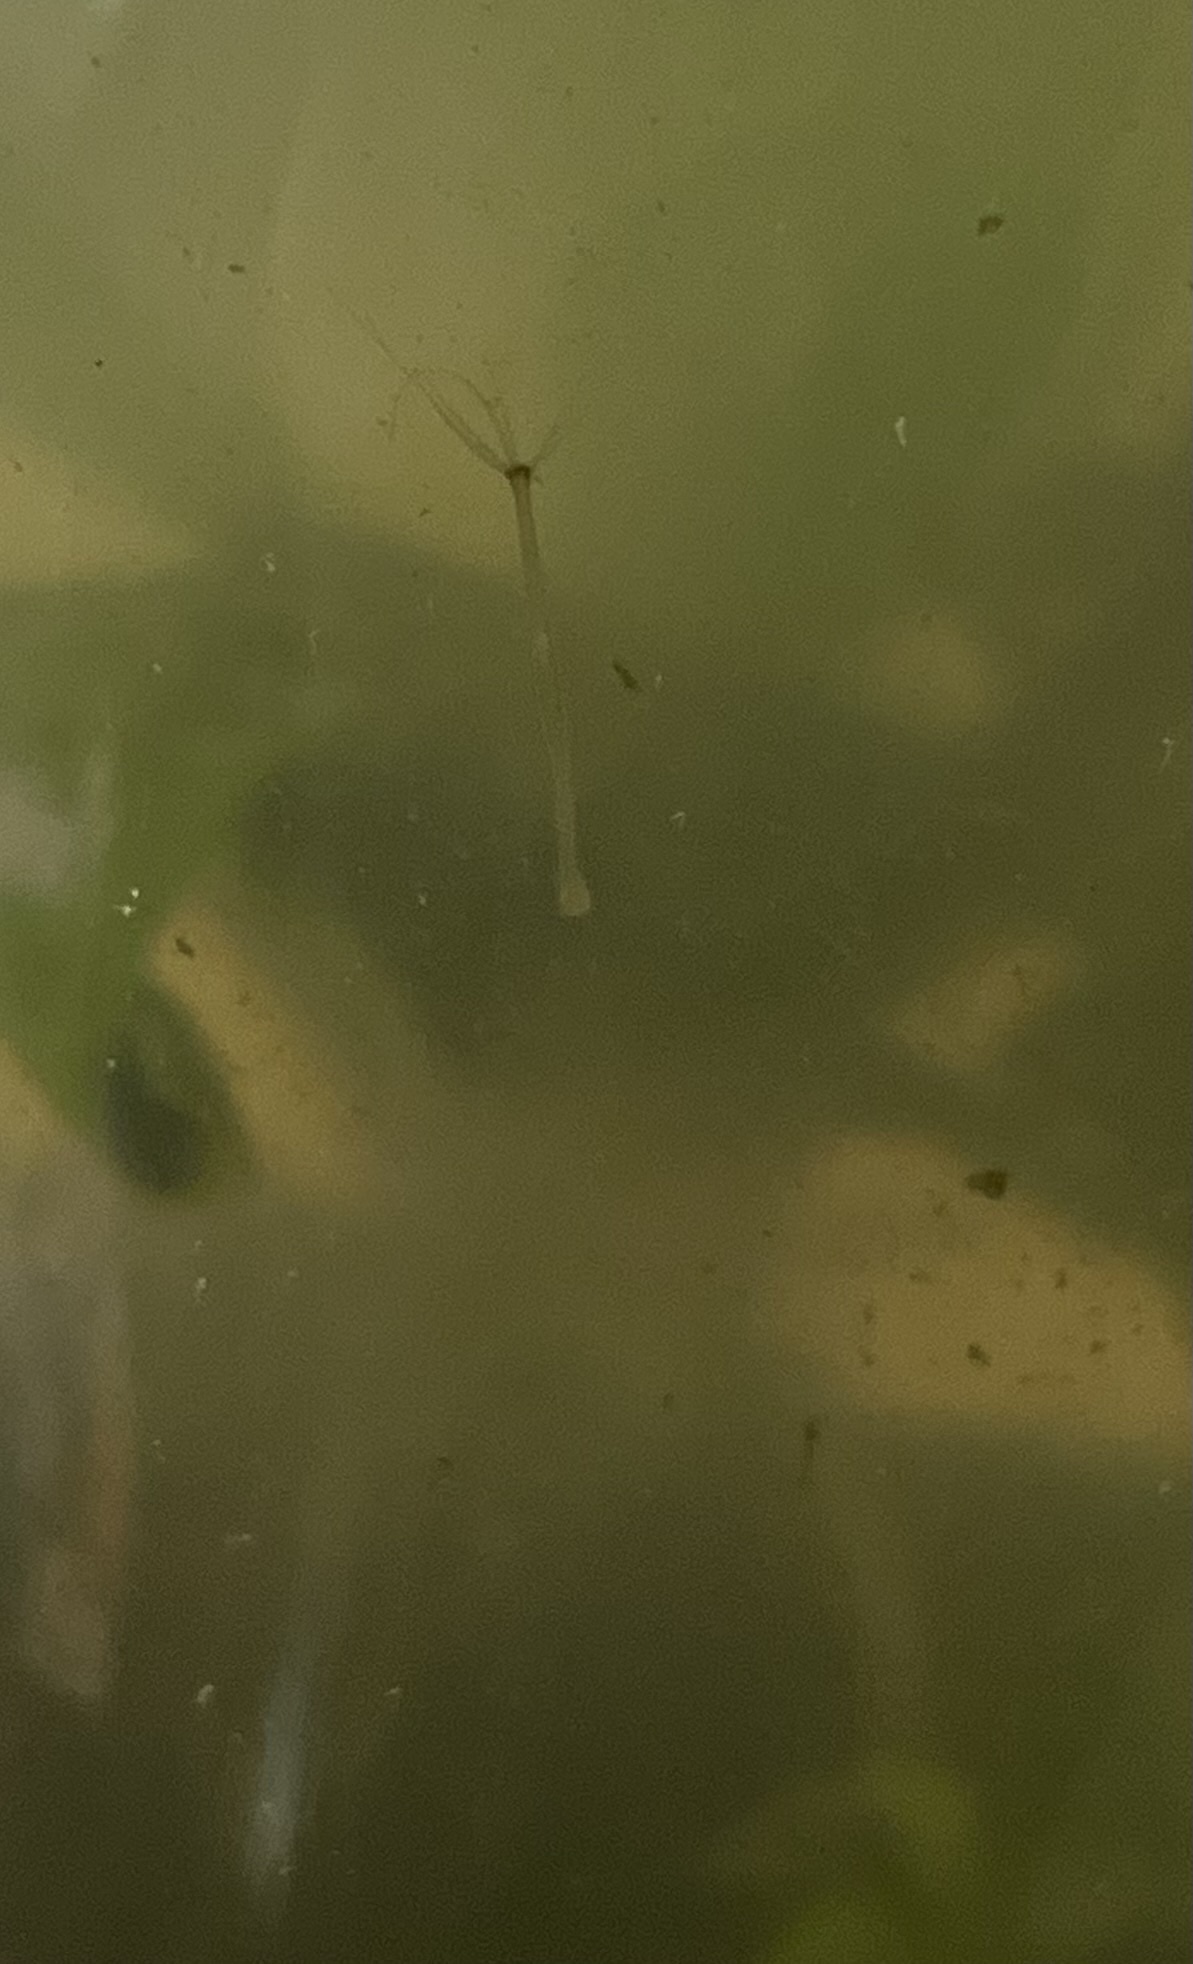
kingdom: Animalia
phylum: Cnidaria
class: Hydrozoa
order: Anthoathecata
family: Hydridae
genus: Hydra
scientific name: Hydra viridissima
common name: Green hydra
